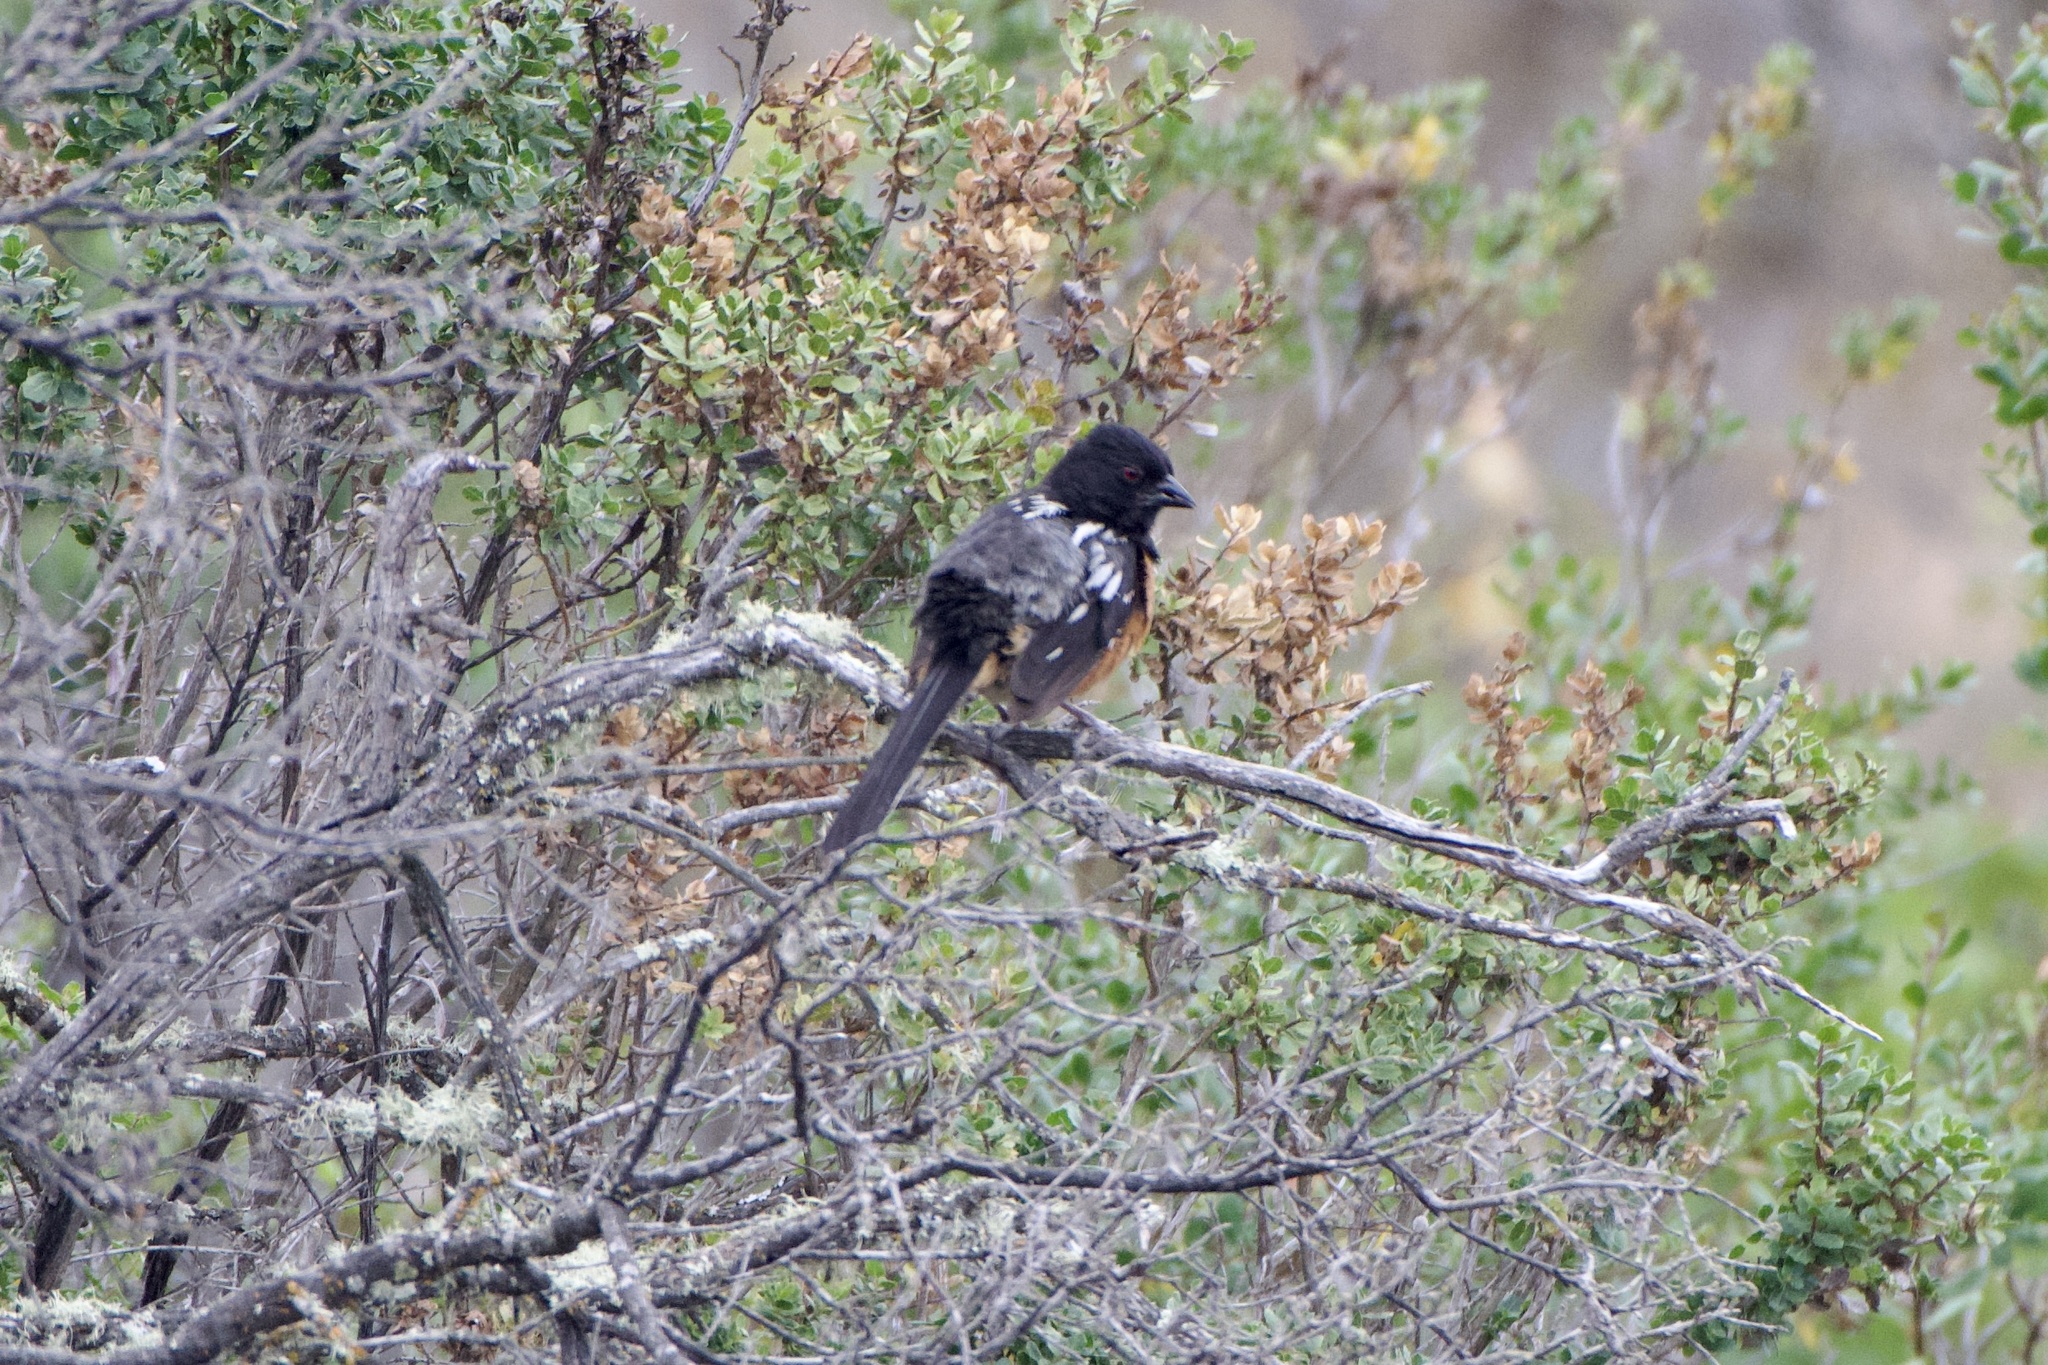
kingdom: Animalia
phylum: Chordata
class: Aves
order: Passeriformes
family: Passerellidae
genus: Pipilo
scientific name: Pipilo maculatus
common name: Spotted towhee
